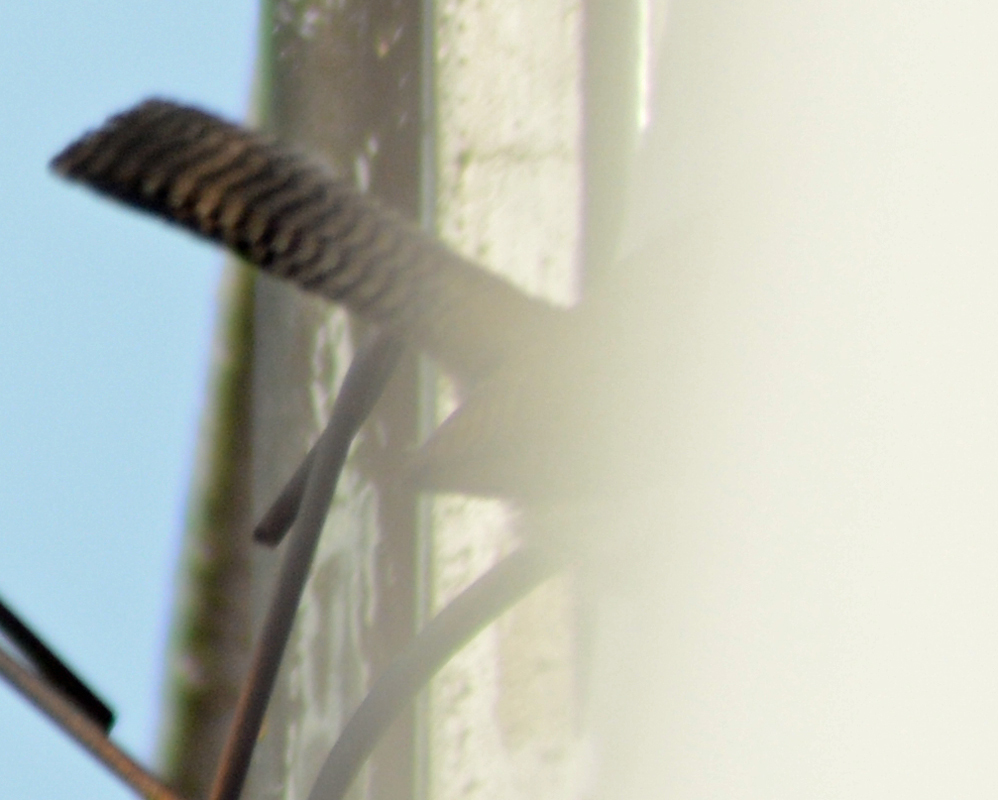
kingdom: Animalia
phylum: Chordata
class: Aves
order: Passeriformes
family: Troglodytidae
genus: Thryomanes
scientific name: Thryomanes bewickii
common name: Bewick's wren
